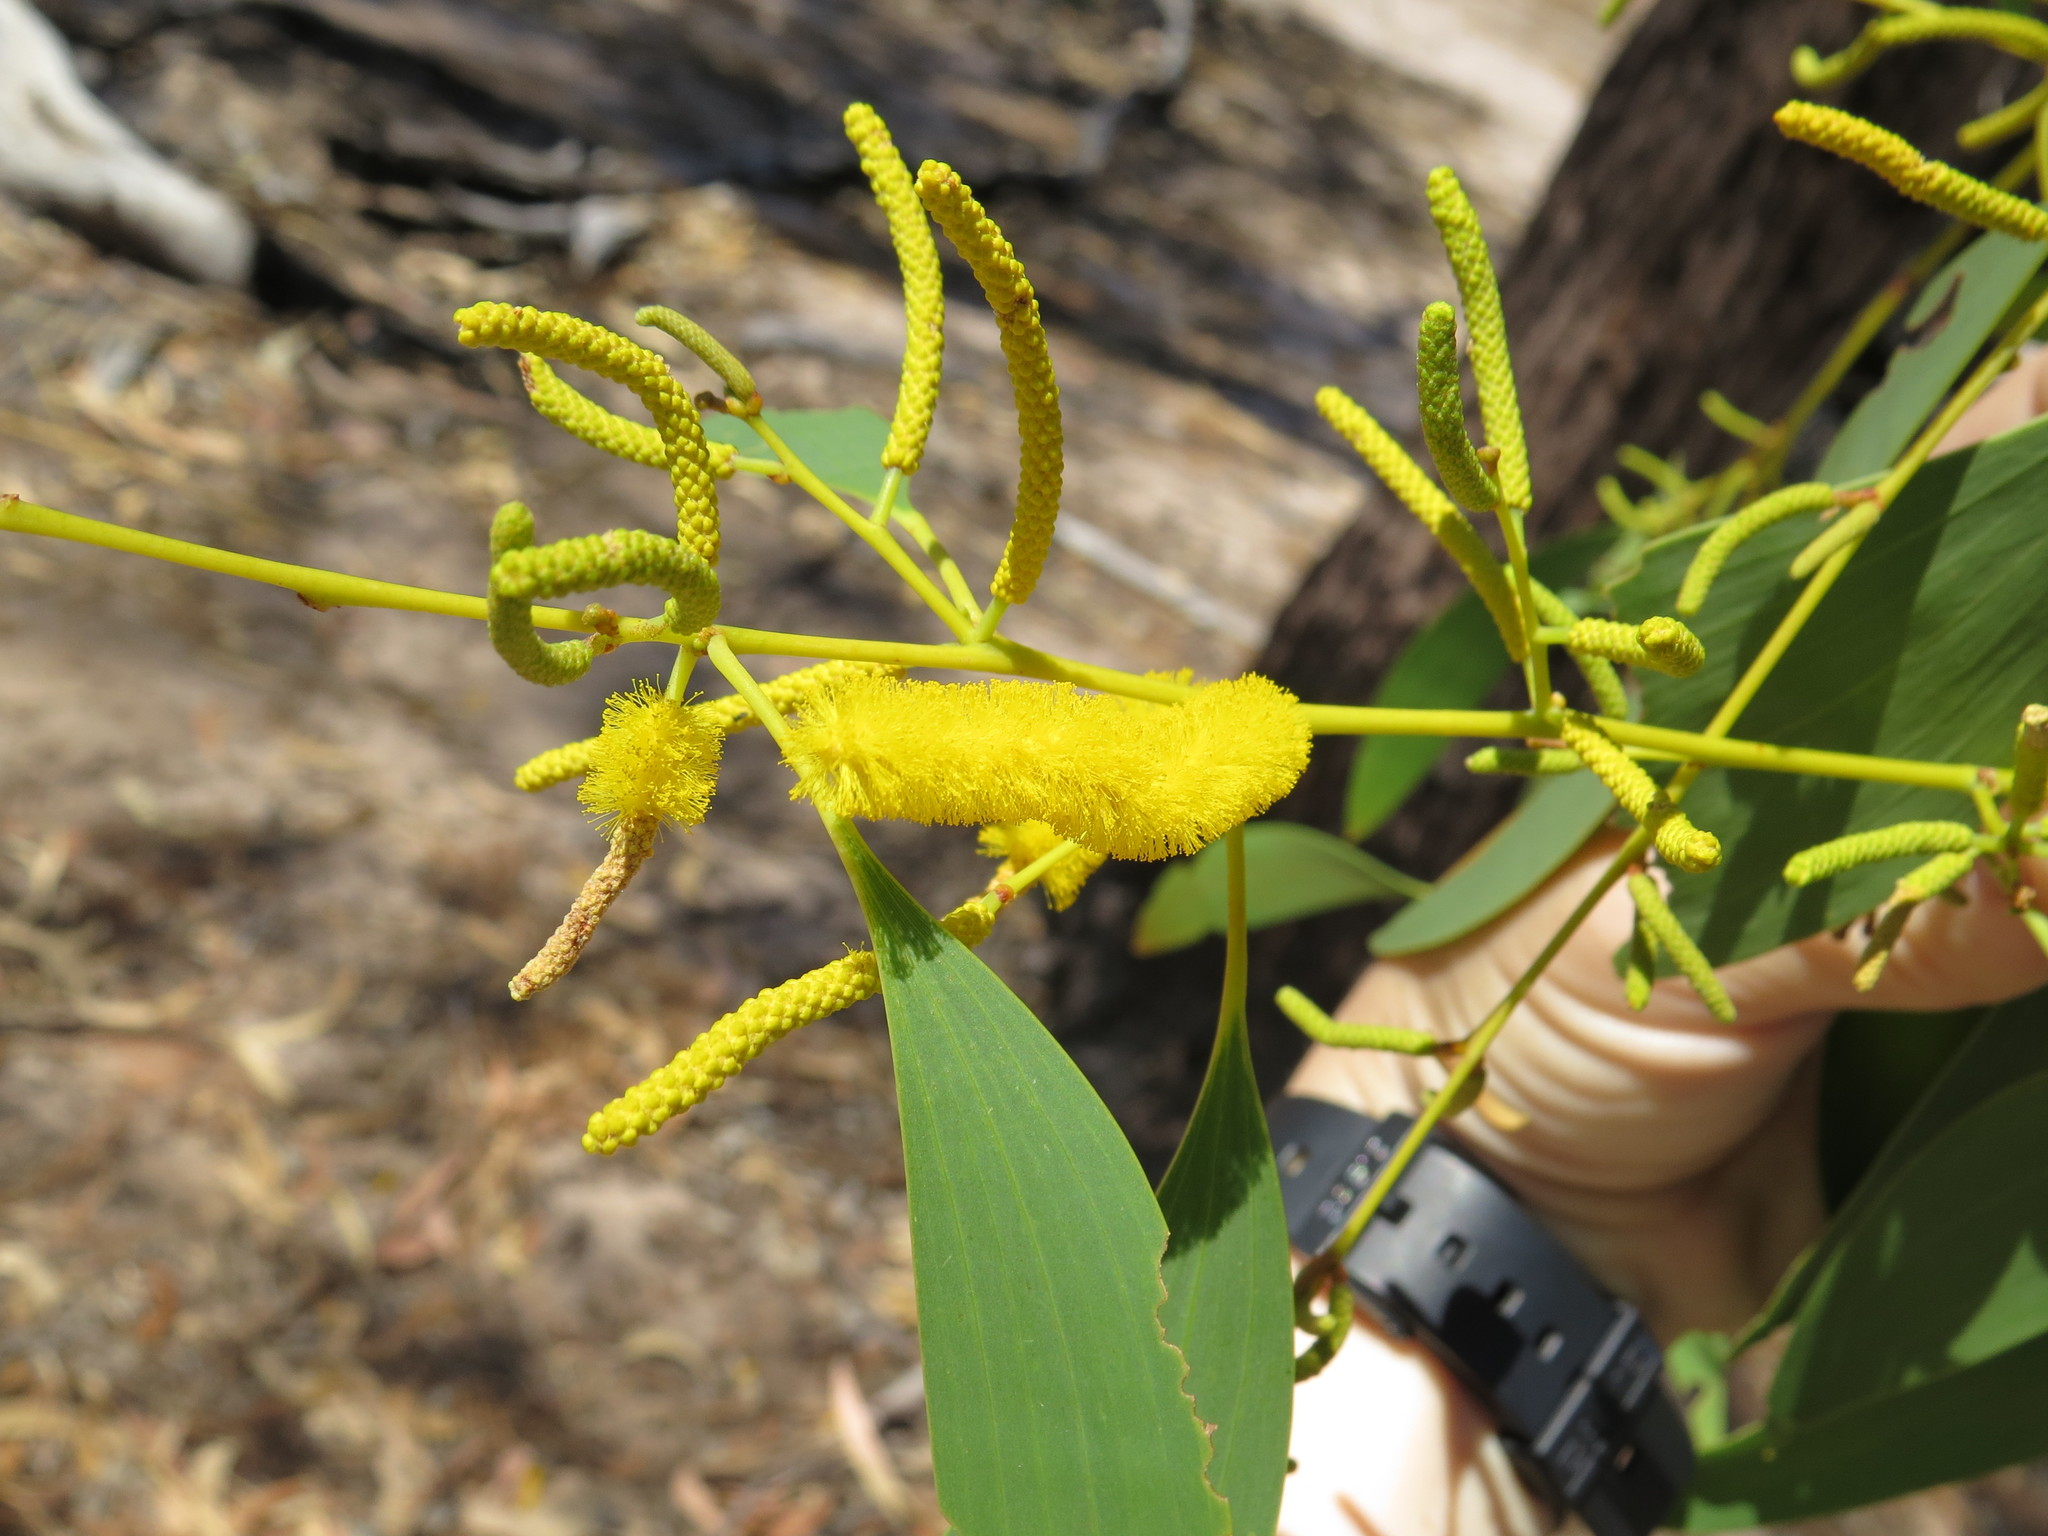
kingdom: Plantae
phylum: Tracheophyta
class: Magnoliopsida
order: Fabales
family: Fabaceae
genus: Acacia
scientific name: Acacia difficilis
